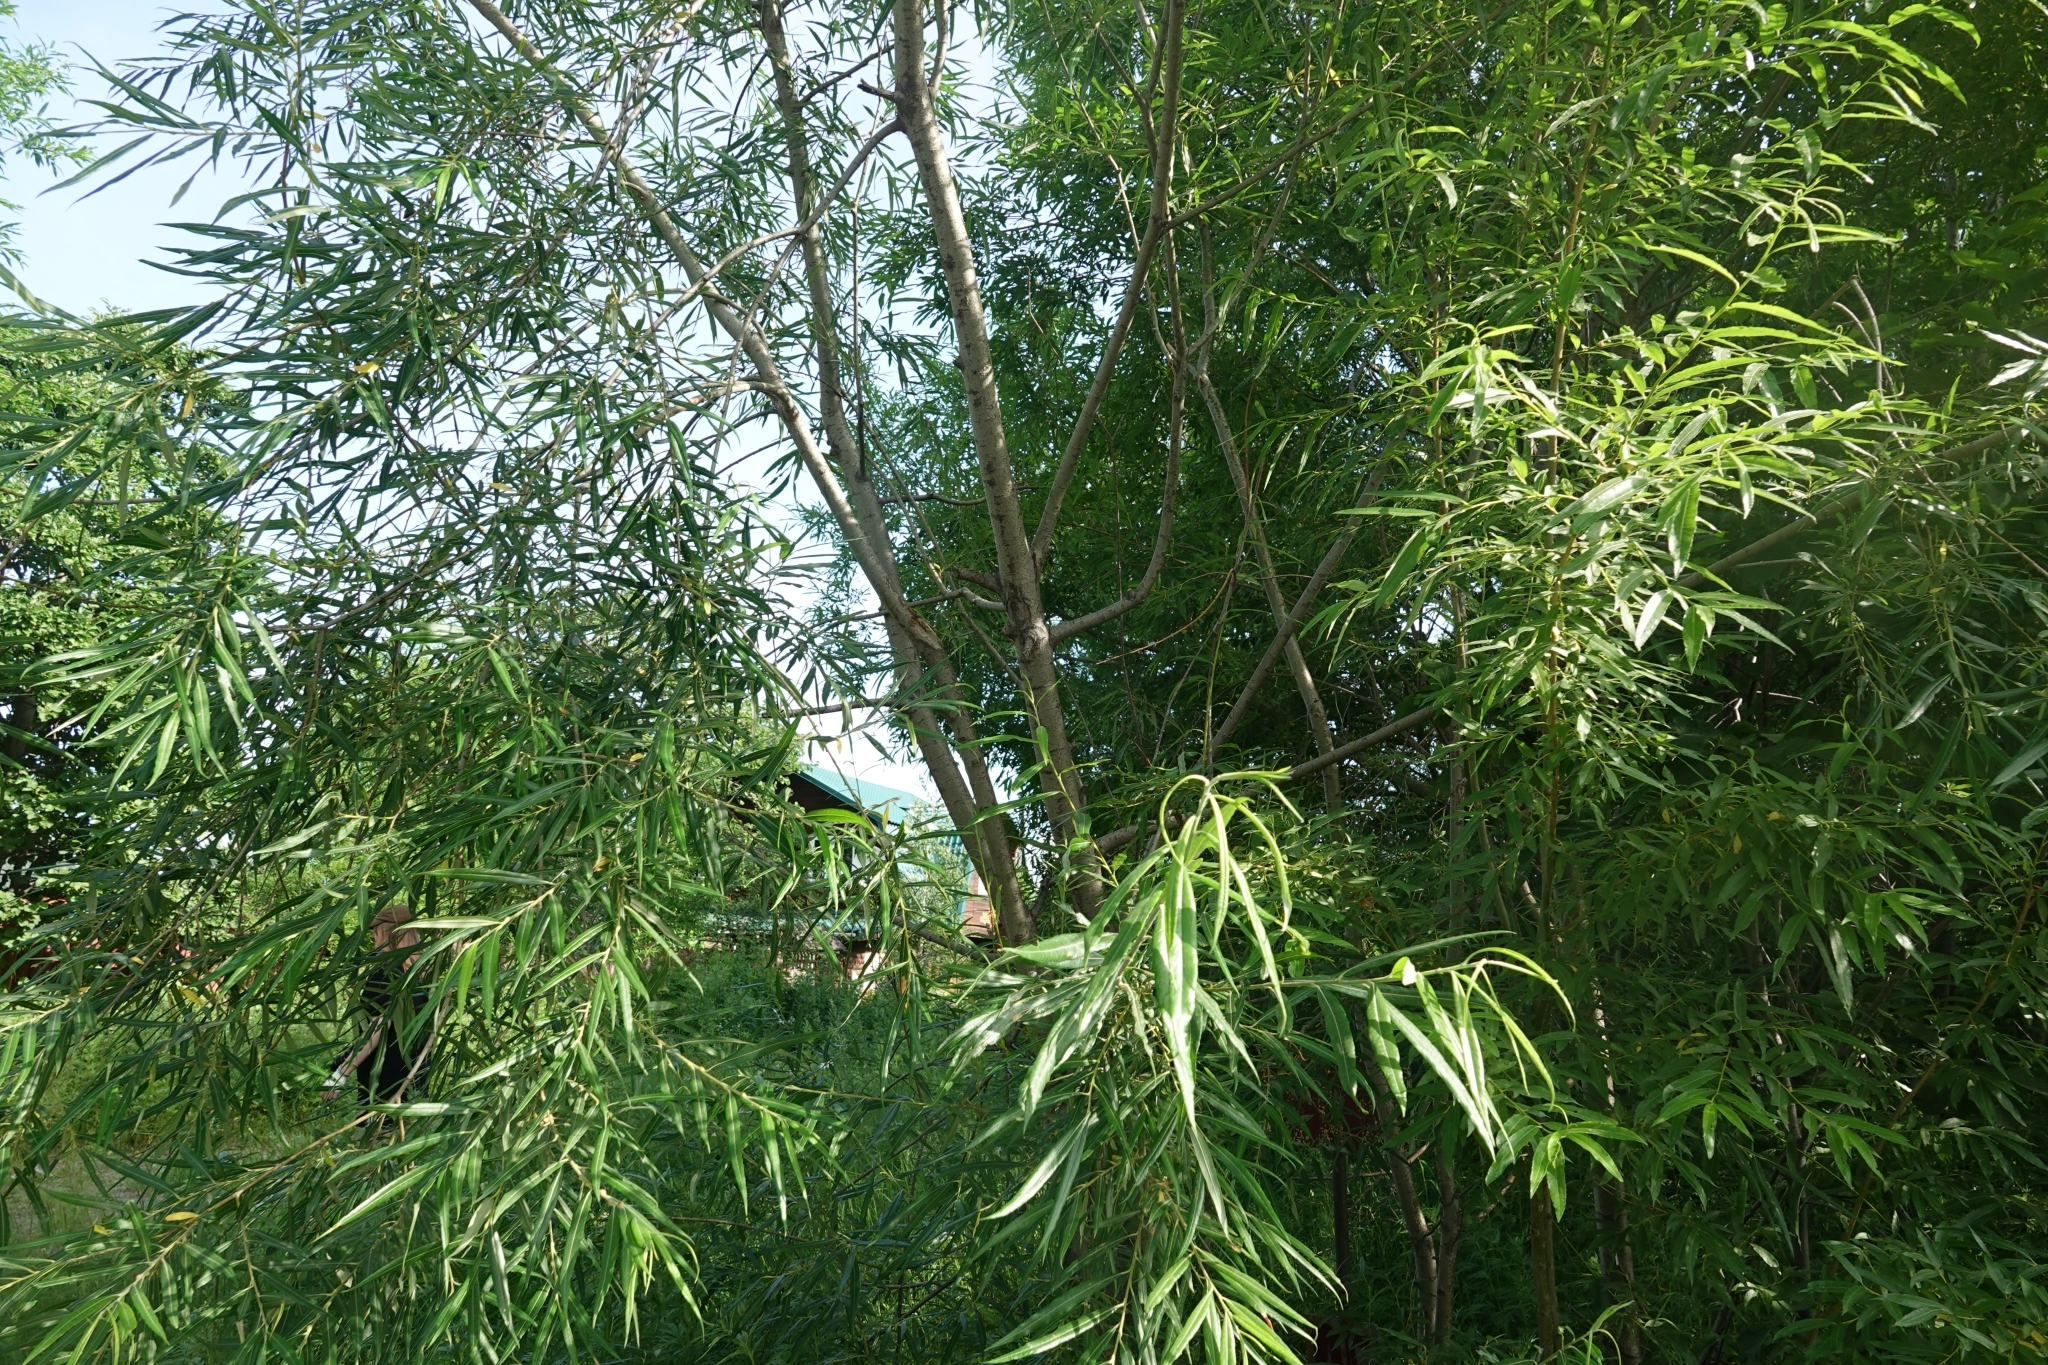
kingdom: Plantae
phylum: Tracheophyta
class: Magnoliopsida
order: Malpighiales
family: Salicaceae
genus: Salix
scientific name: Salix schwerinii
